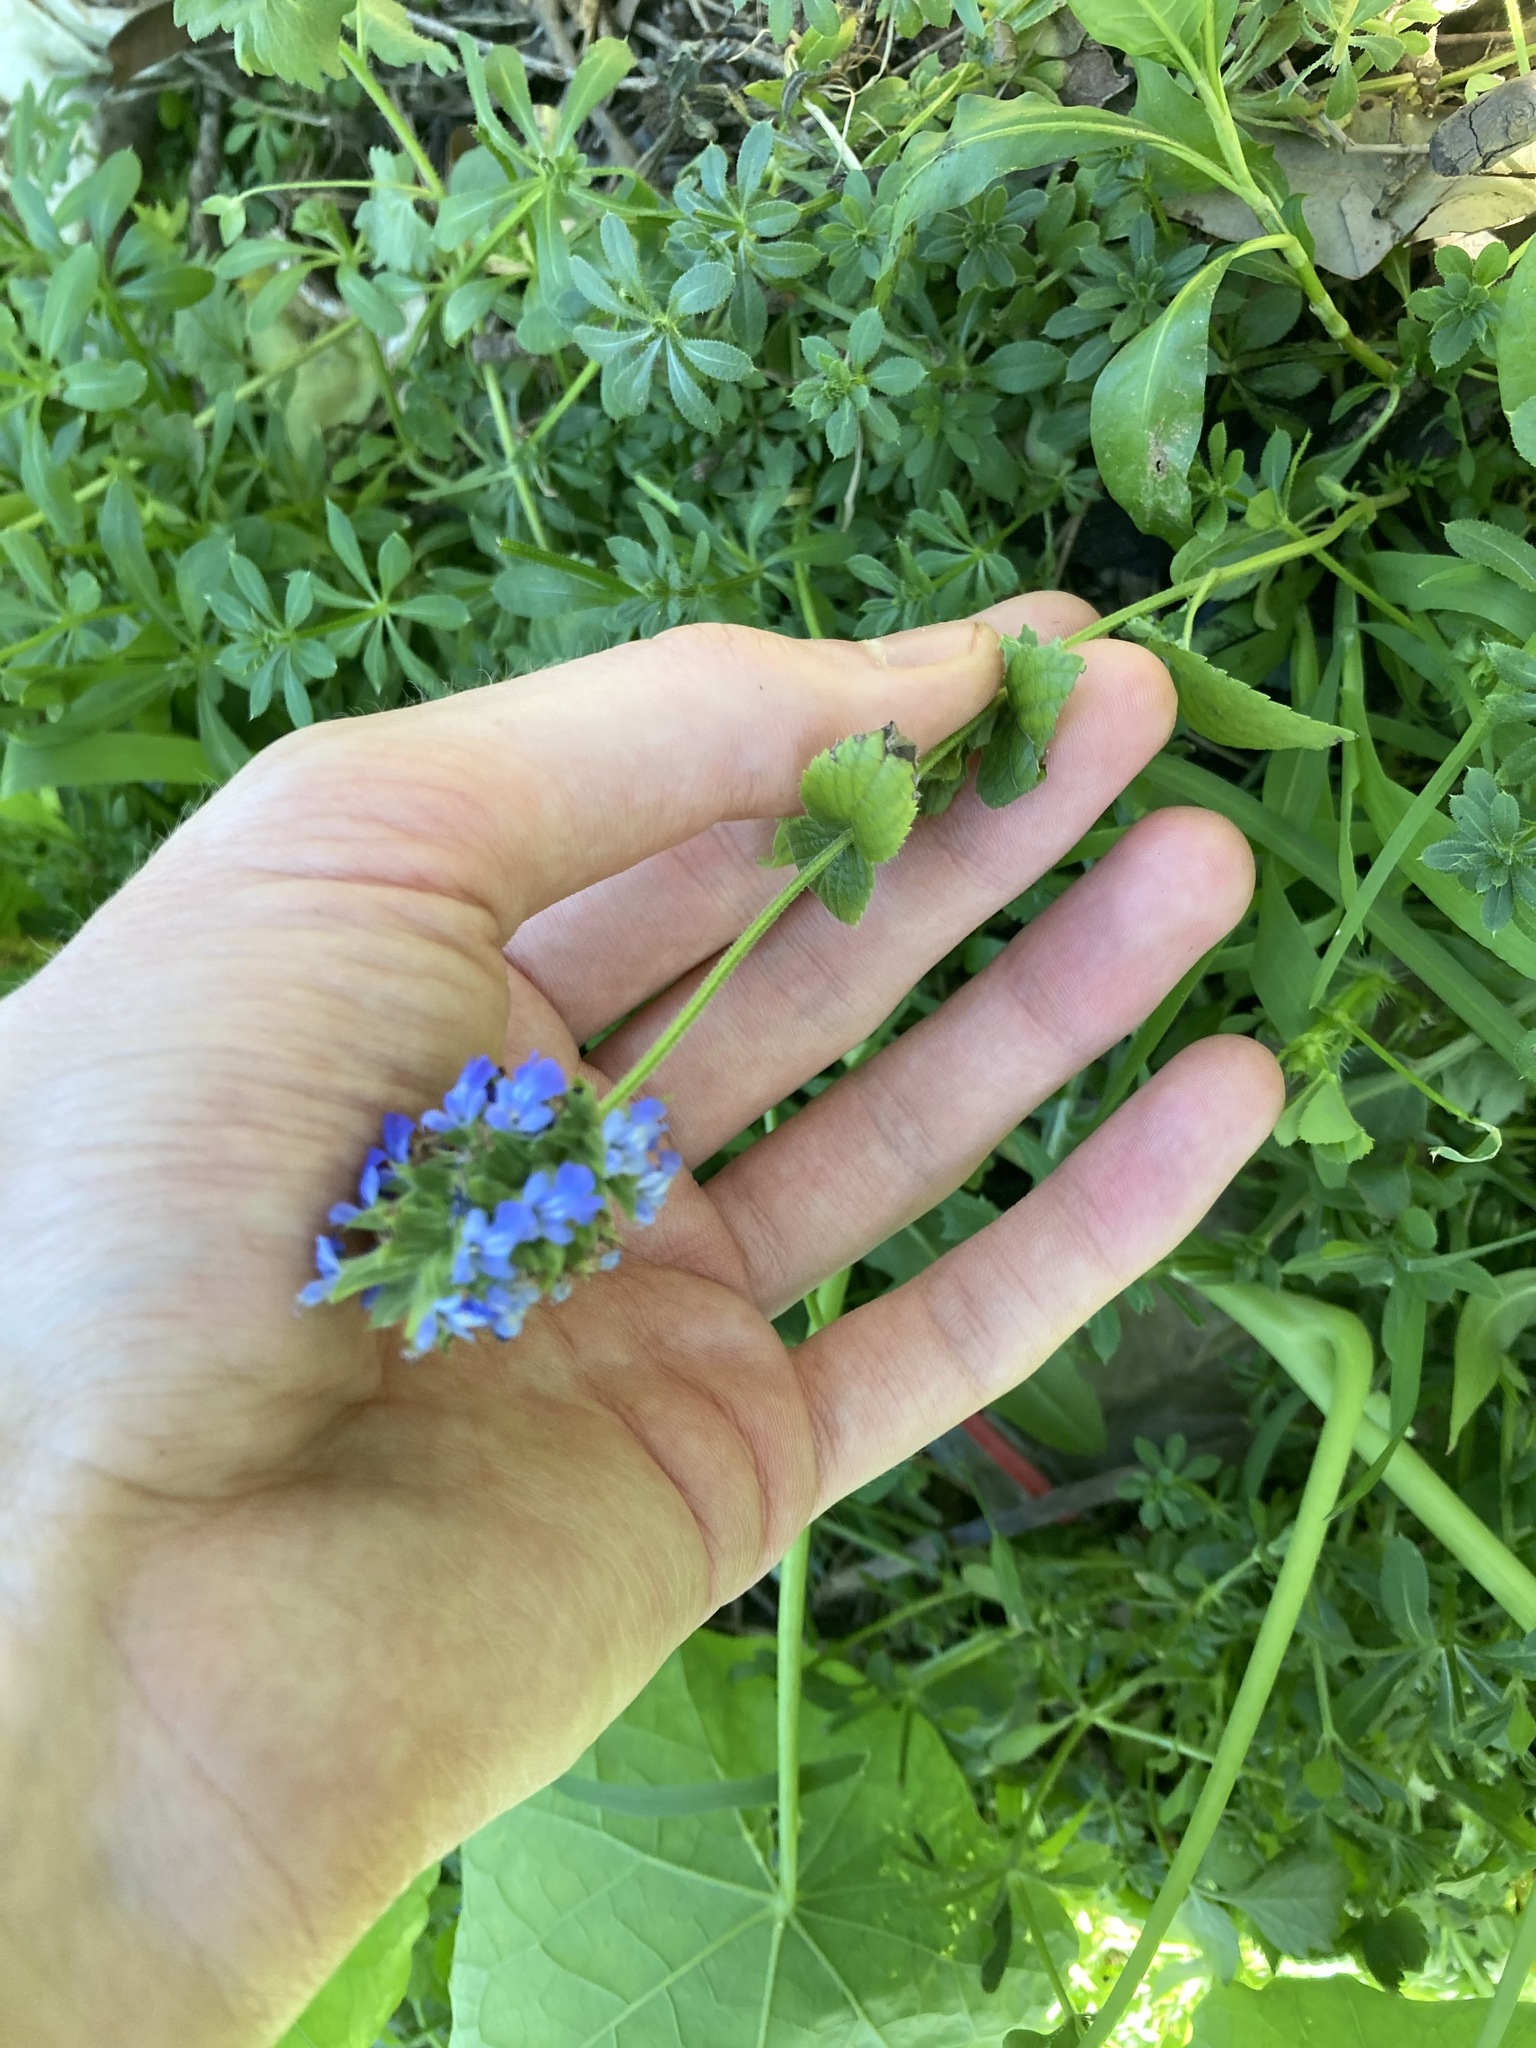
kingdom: Plantae
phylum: Tracheophyta
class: Magnoliopsida
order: Lamiales
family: Lamiaceae
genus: Salvia
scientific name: Salvia hispanica
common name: Chia
